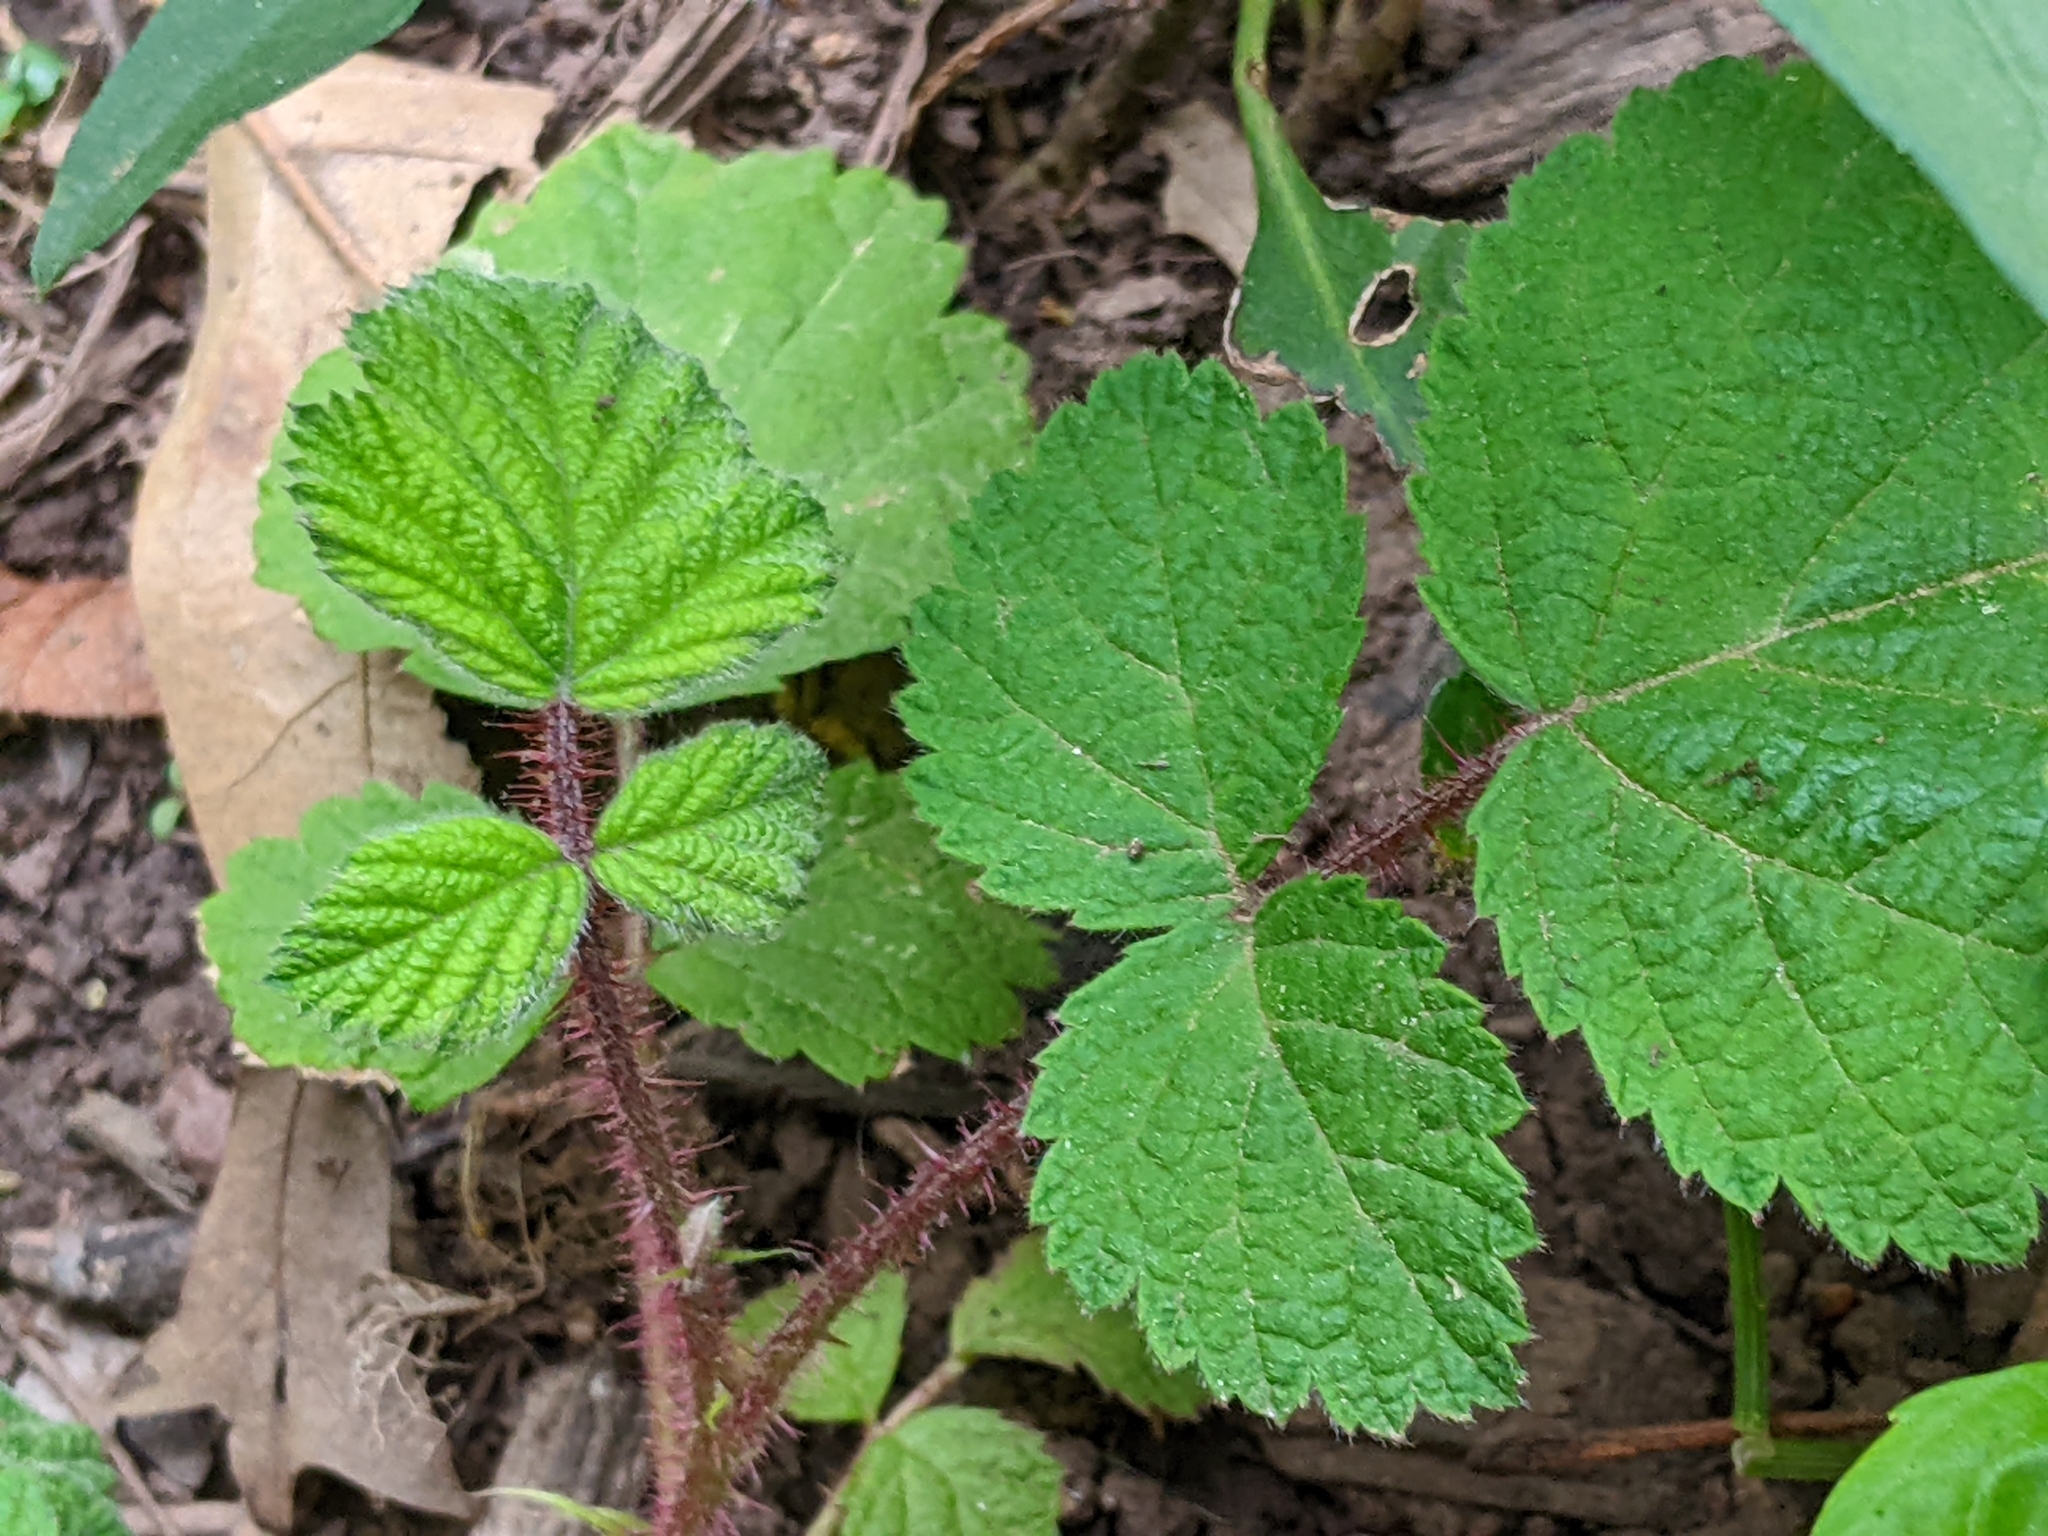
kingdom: Plantae
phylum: Tracheophyta
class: Magnoliopsida
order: Rosales
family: Rosaceae
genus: Rubus
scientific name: Rubus phoenicolasius
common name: Japanese wineberry
